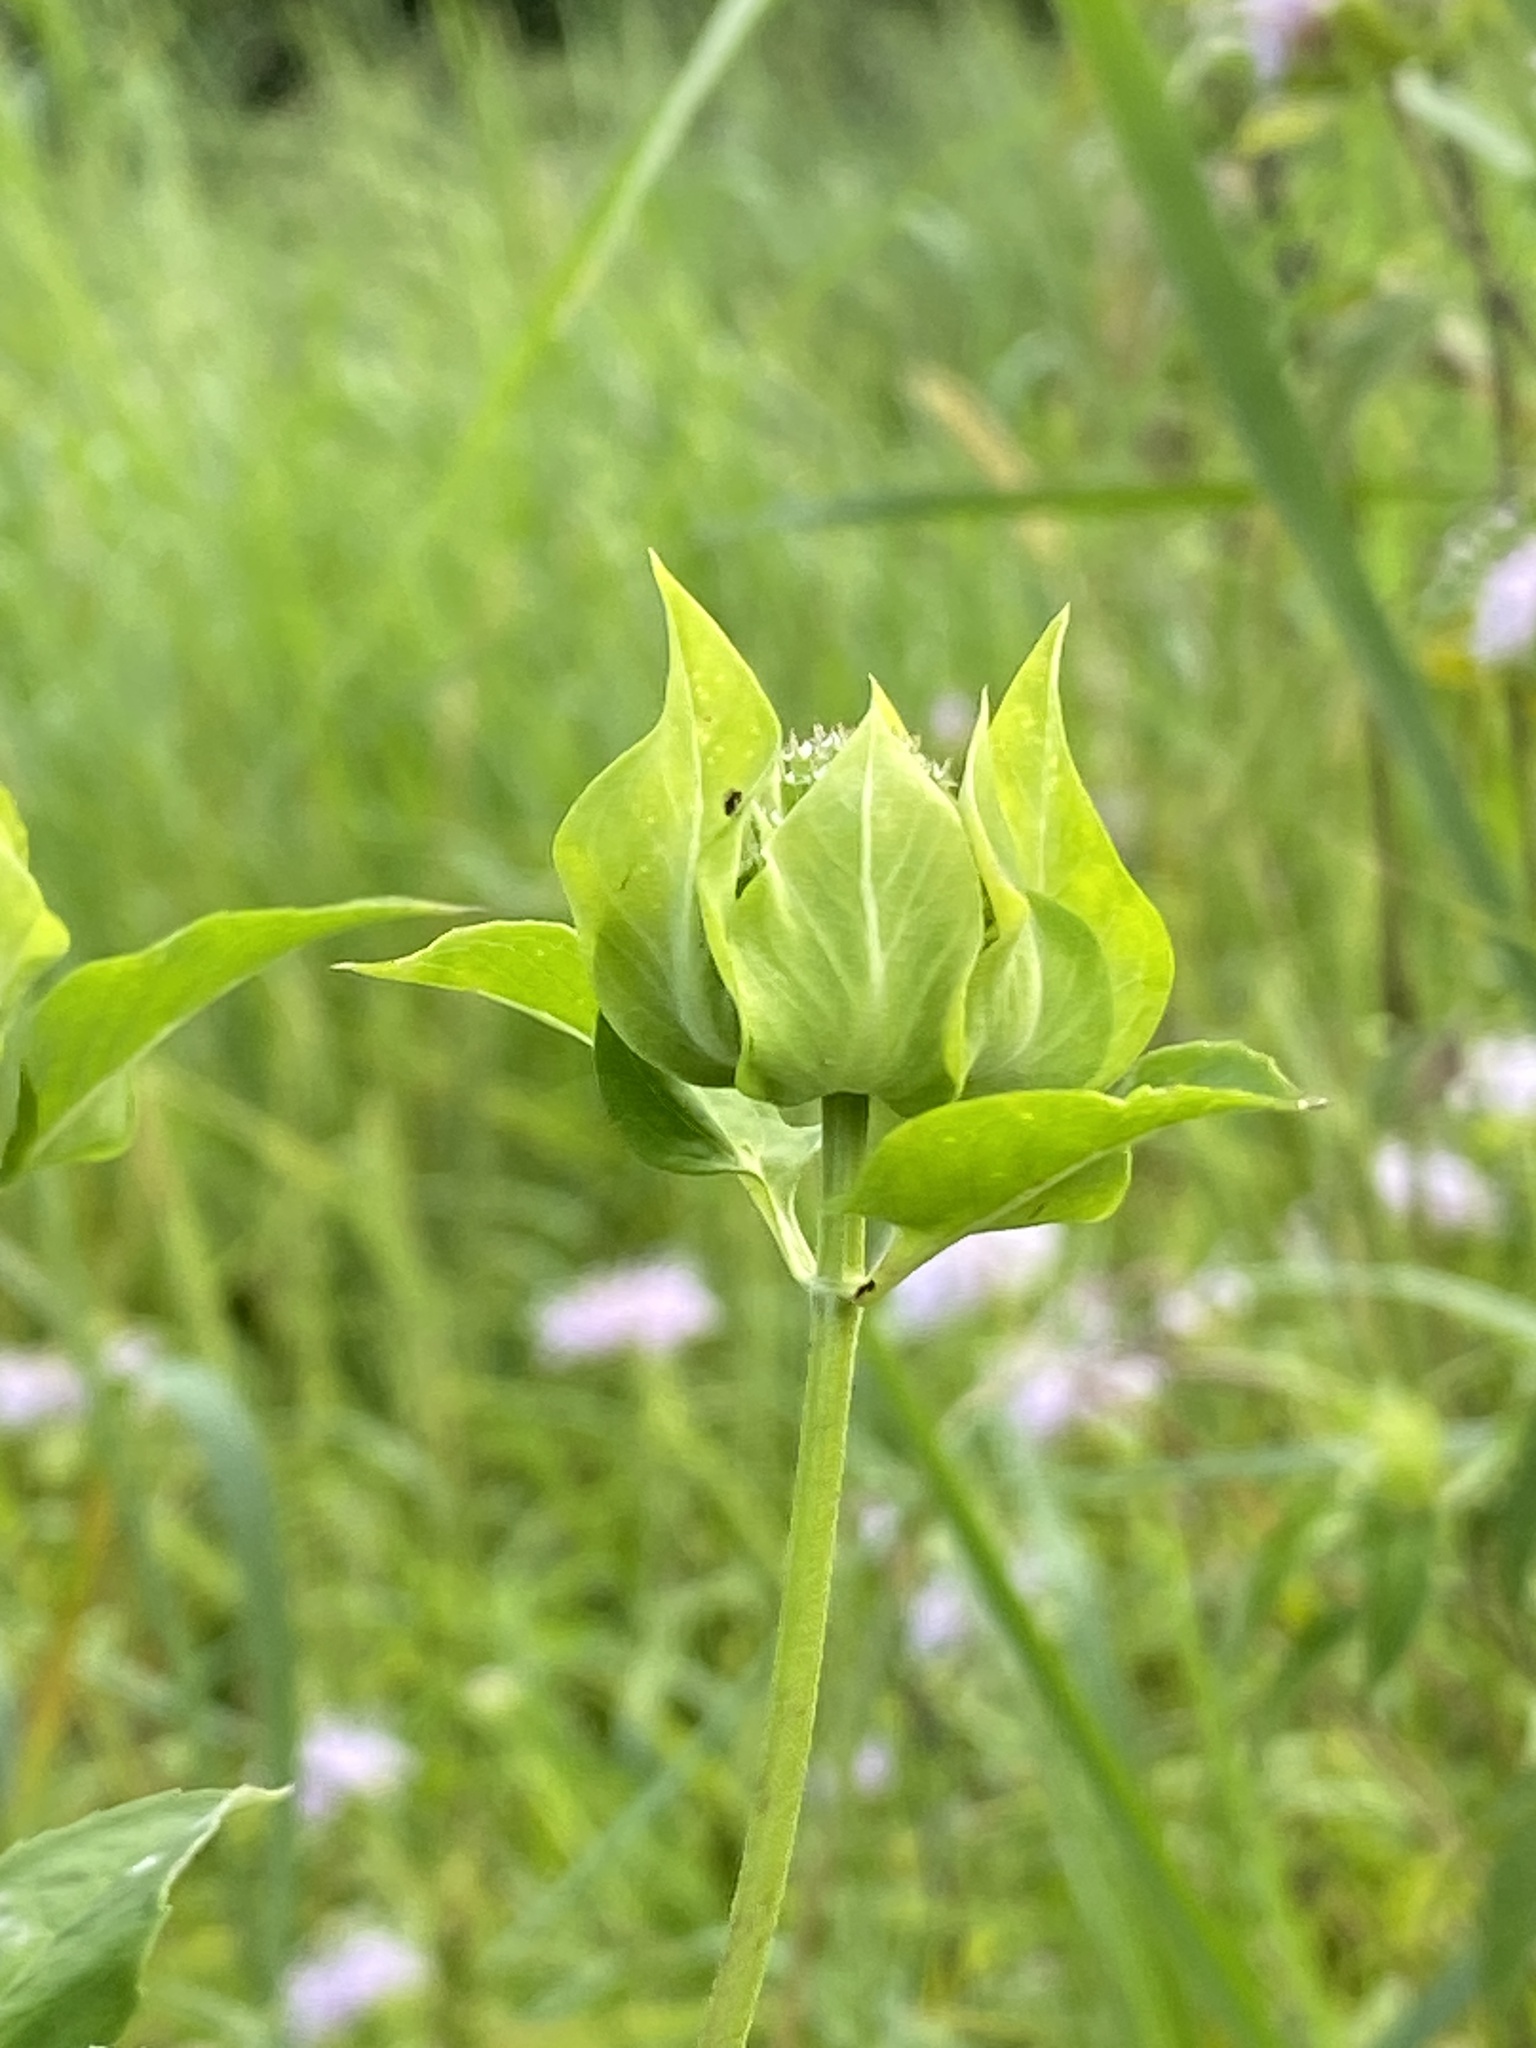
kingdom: Plantae
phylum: Tracheophyta
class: Magnoliopsida
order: Lamiales
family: Lamiaceae
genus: Monarda
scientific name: Monarda fistulosa
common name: Purple beebalm
